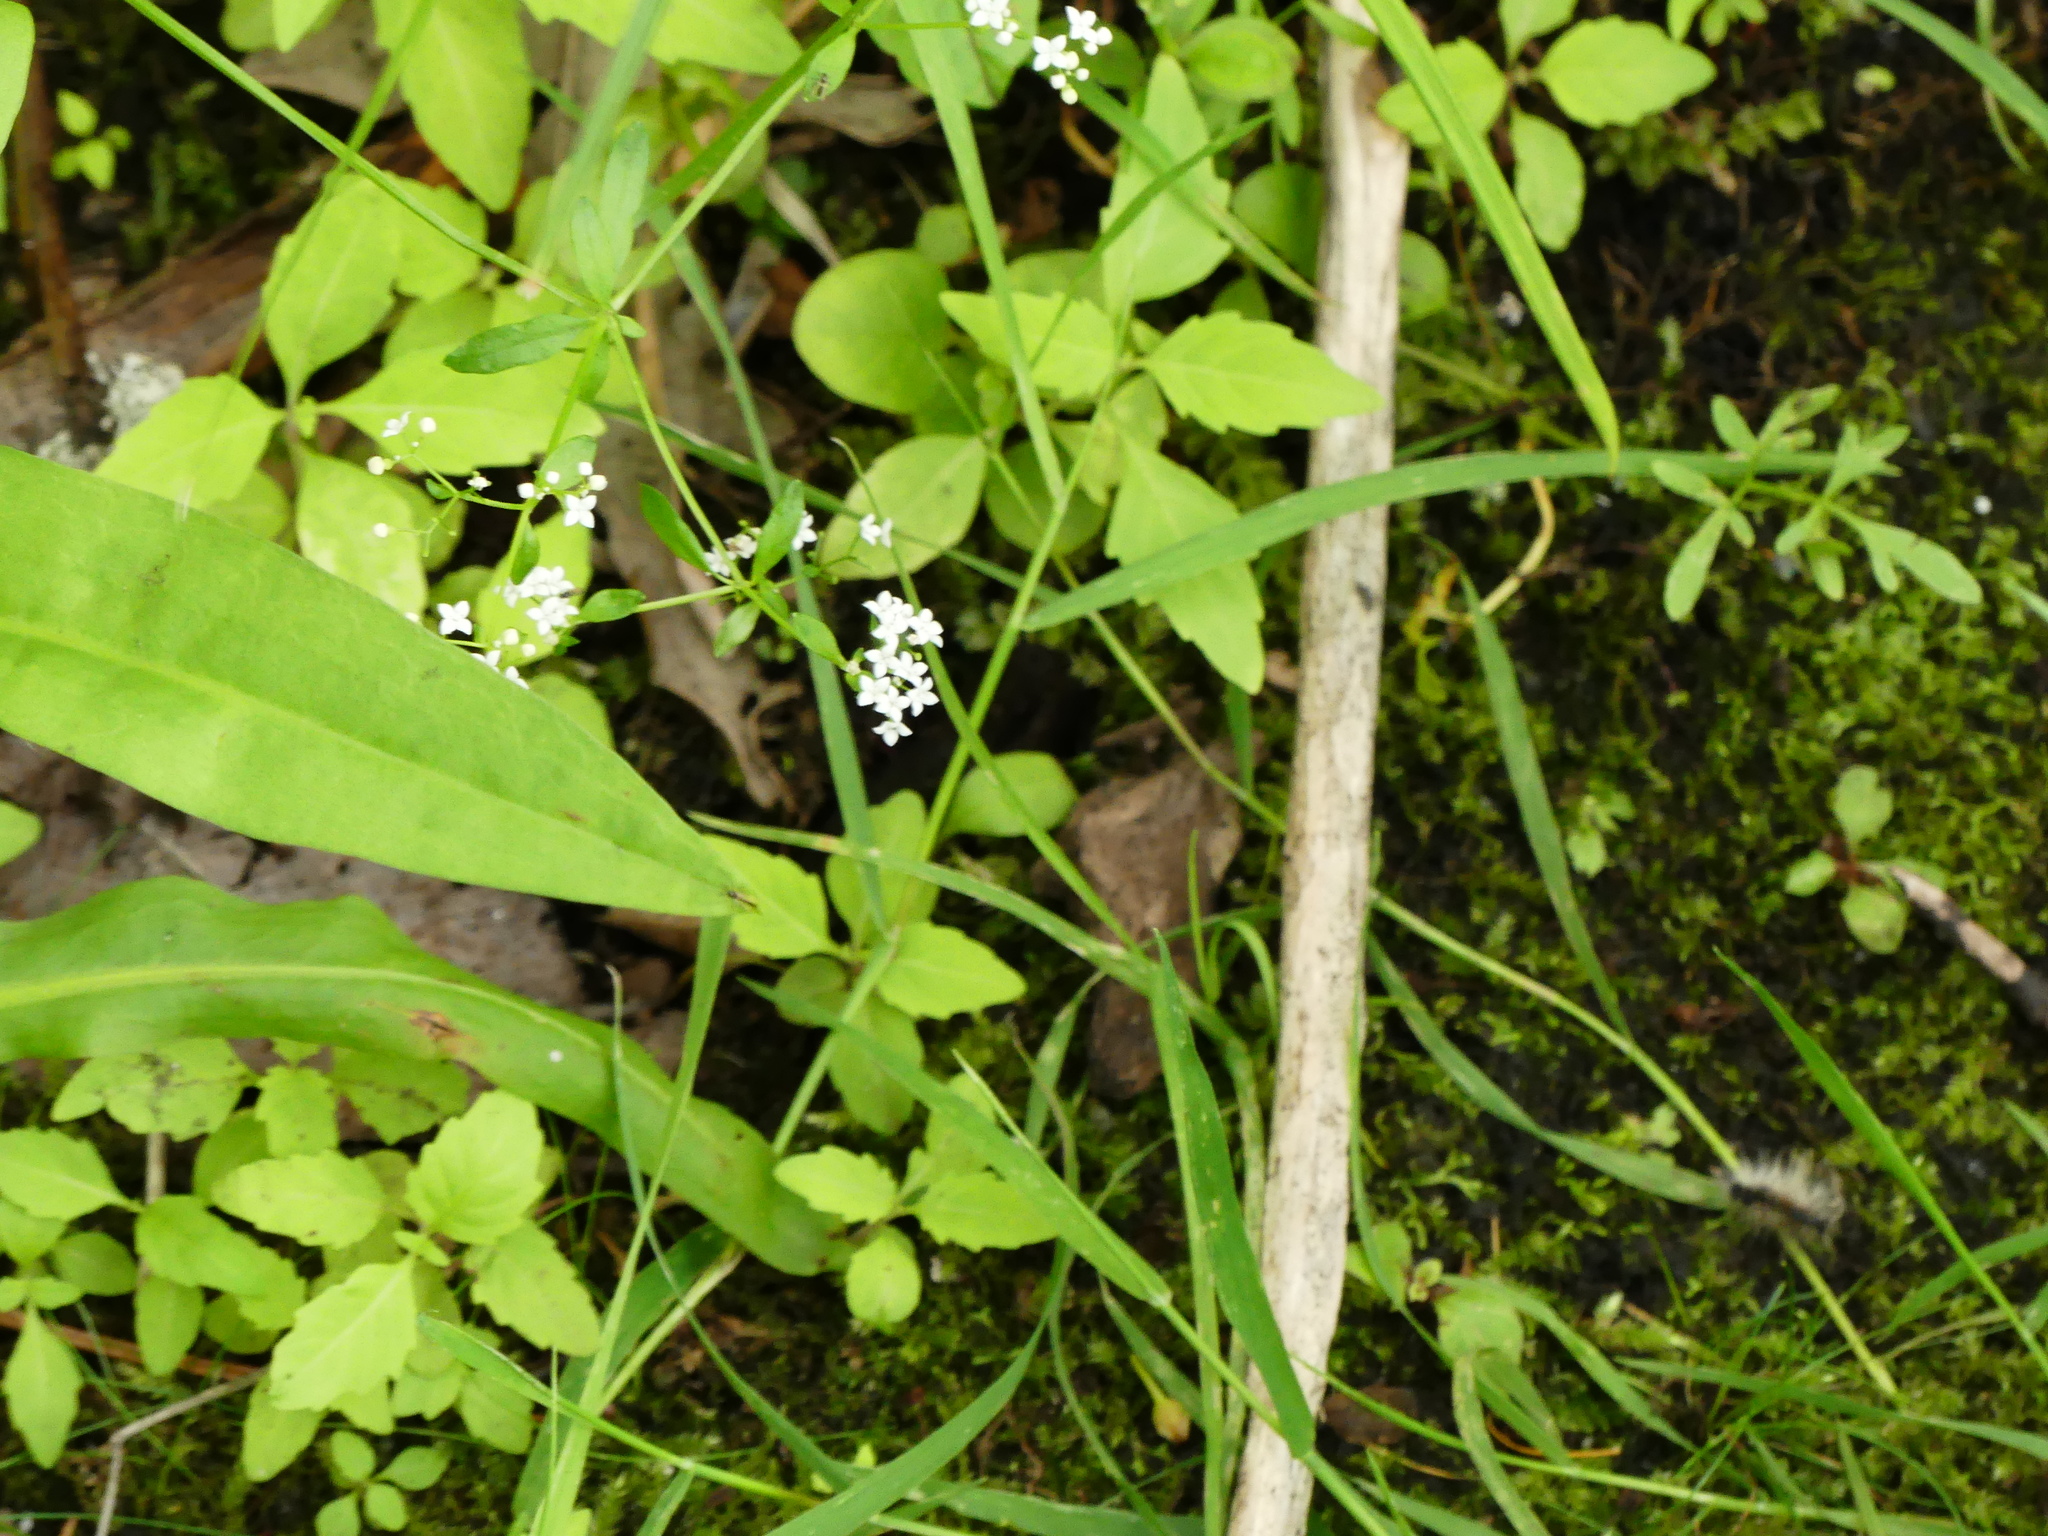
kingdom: Plantae
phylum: Tracheophyta
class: Magnoliopsida
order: Gentianales
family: Rubiaceae
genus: Galium
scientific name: Galium palustre
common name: Common marsh-bedstraw
